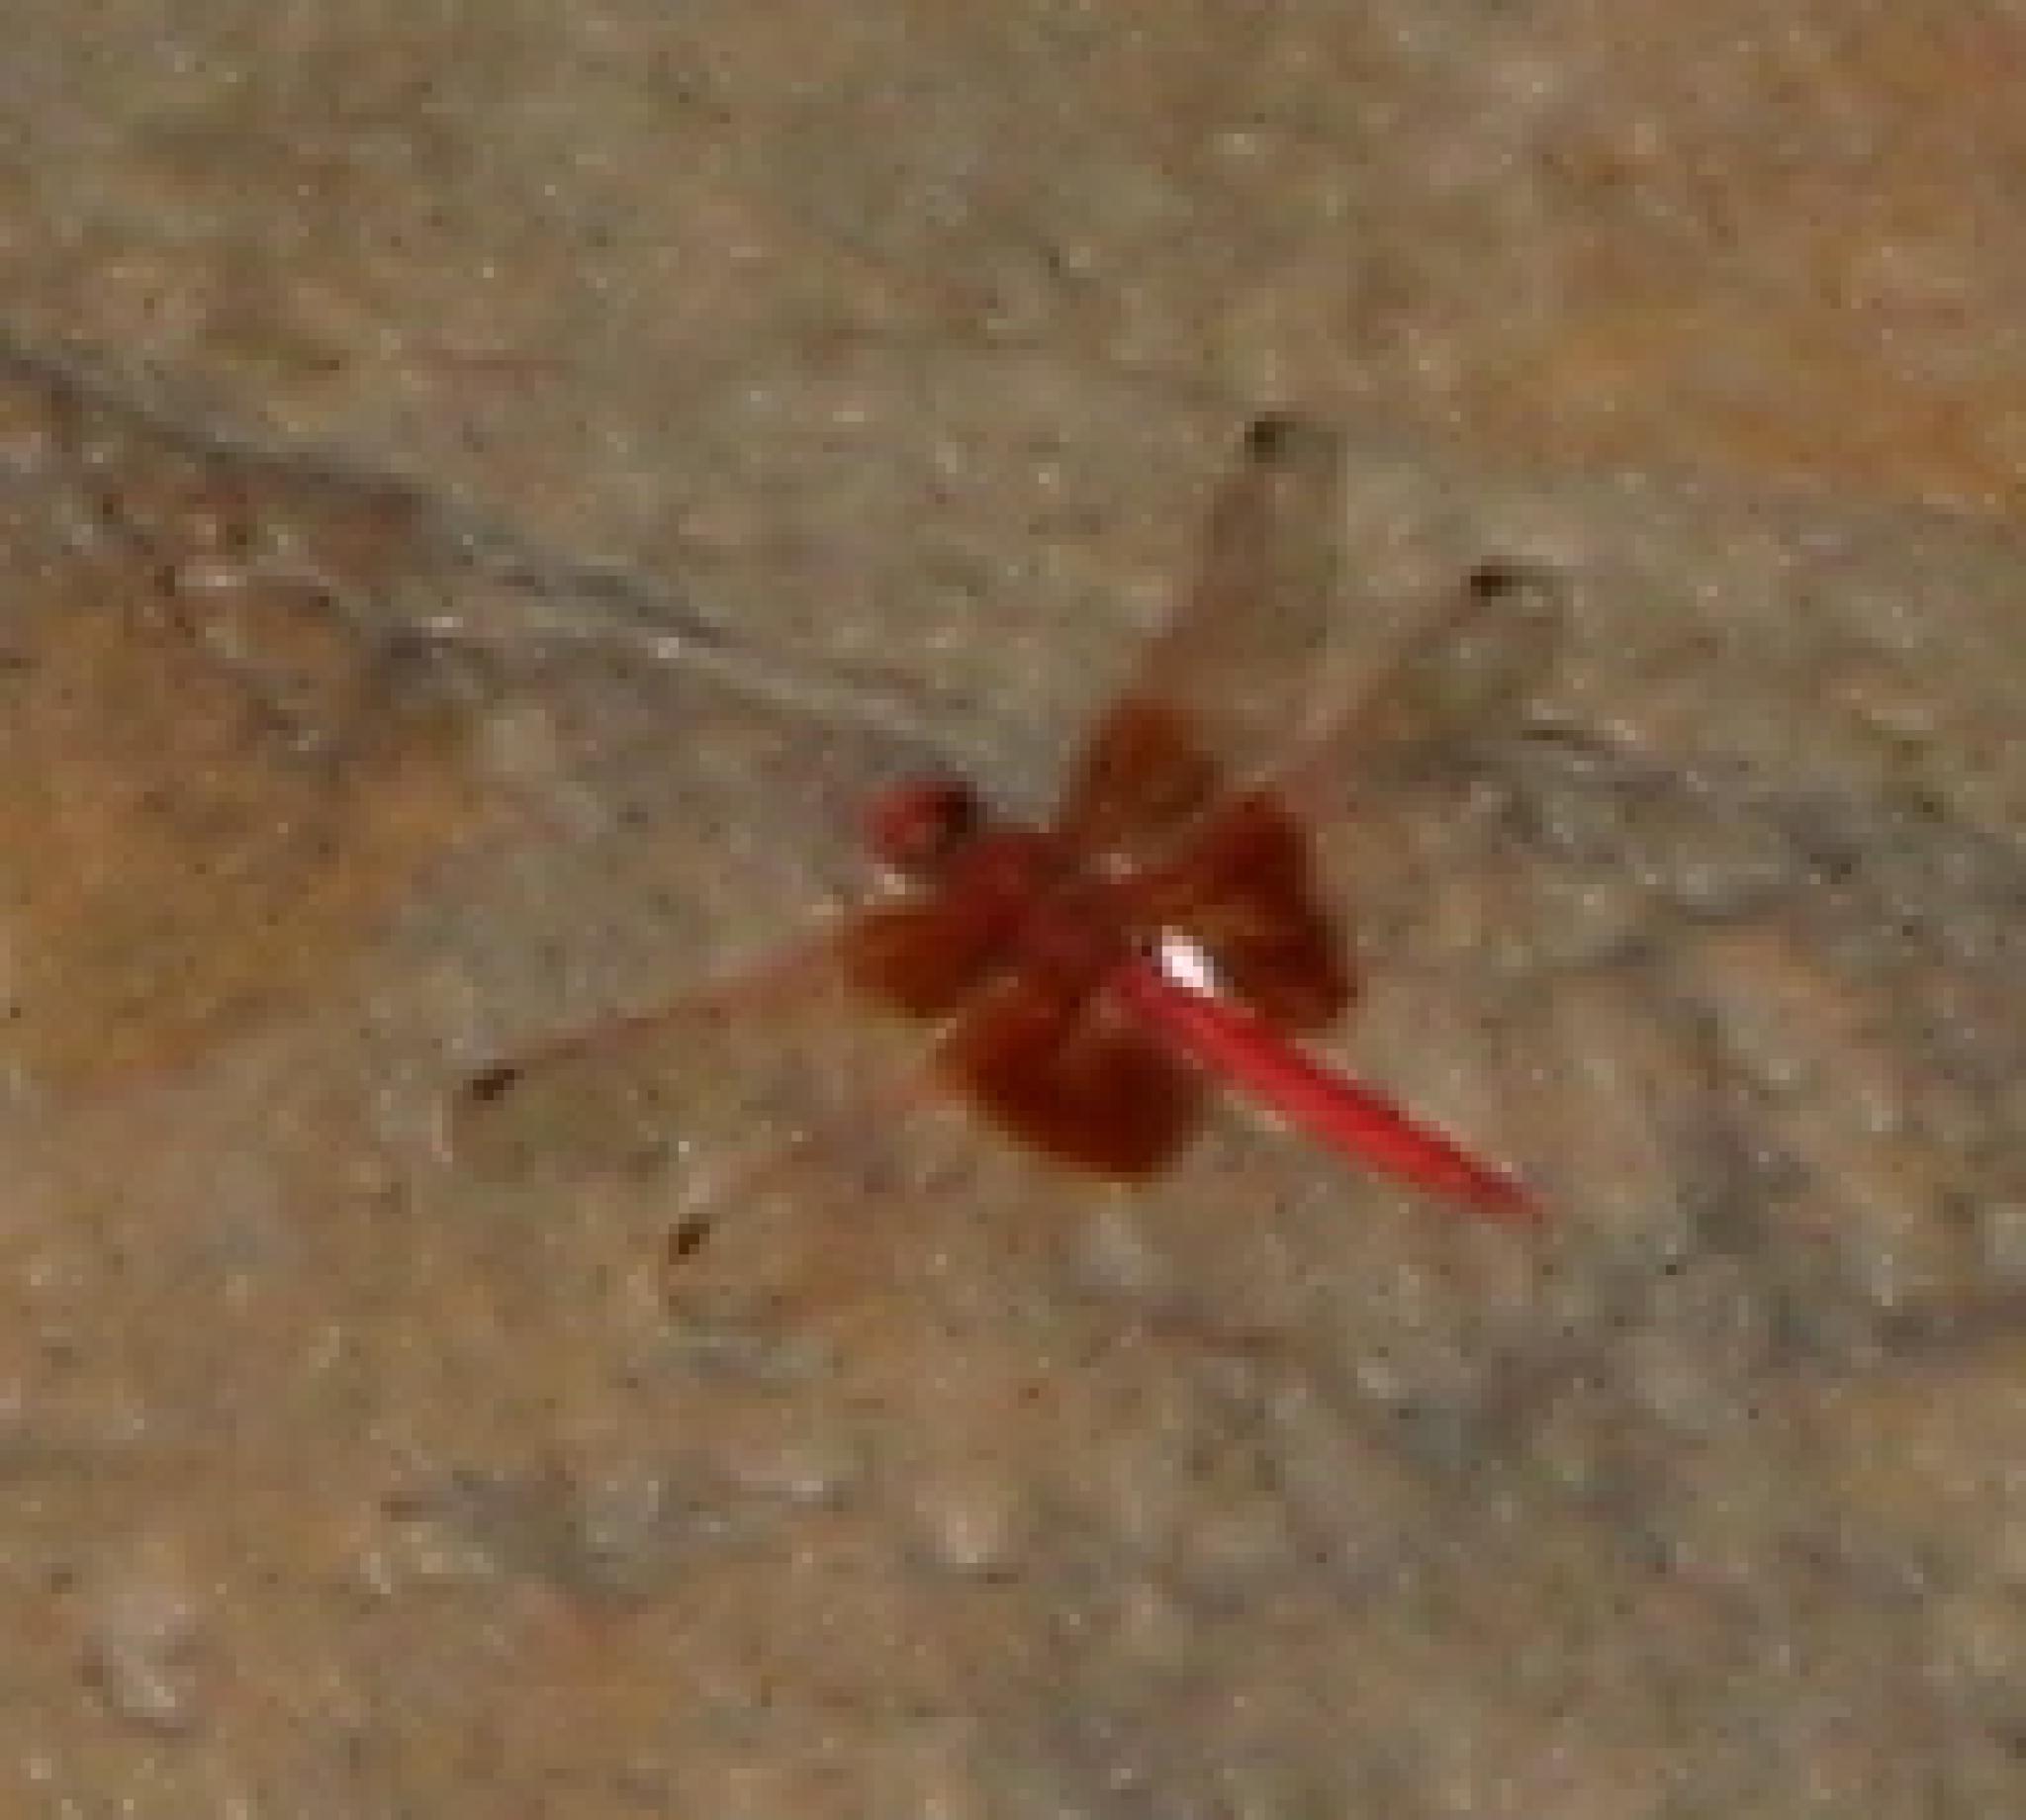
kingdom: Animalia
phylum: Arthropoda
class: Insecta
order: Odonata
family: Libellulidae
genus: Trithemis
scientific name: Trithemis kirbyi
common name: Kirby's dropwing
